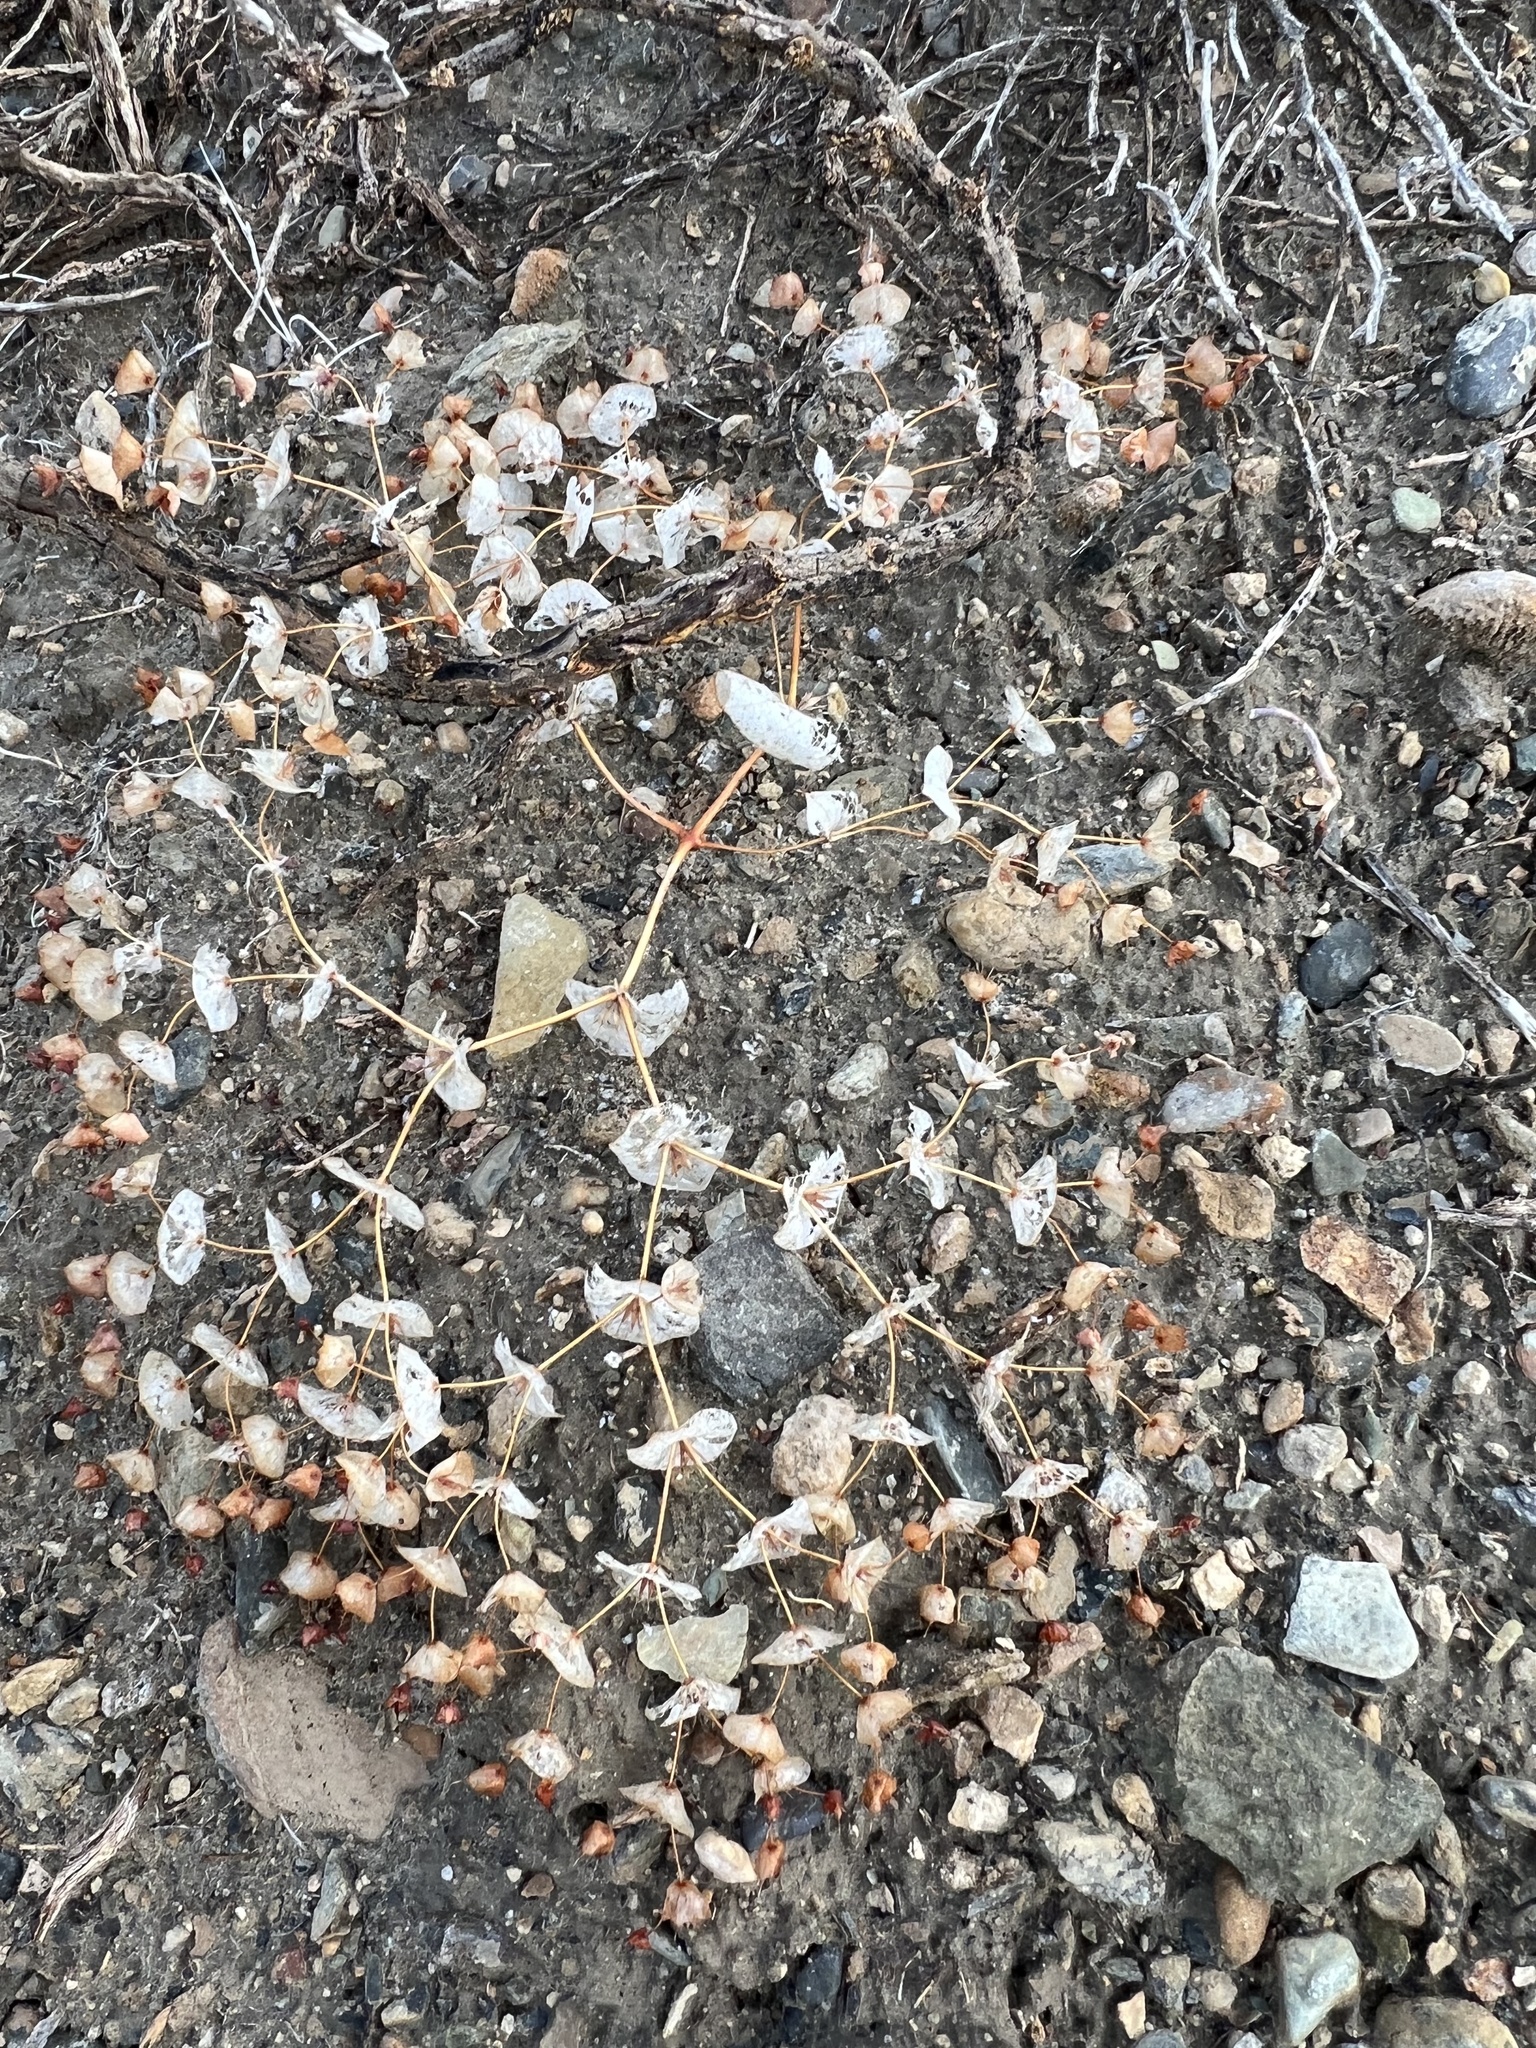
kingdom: Plantae
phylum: Tracheophyta
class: Magnoliopsida
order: Caryophyllales
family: Polygonaceae
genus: Oxytheca
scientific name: Oxytheca perfoliata
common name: Round-leaf puncturebract
